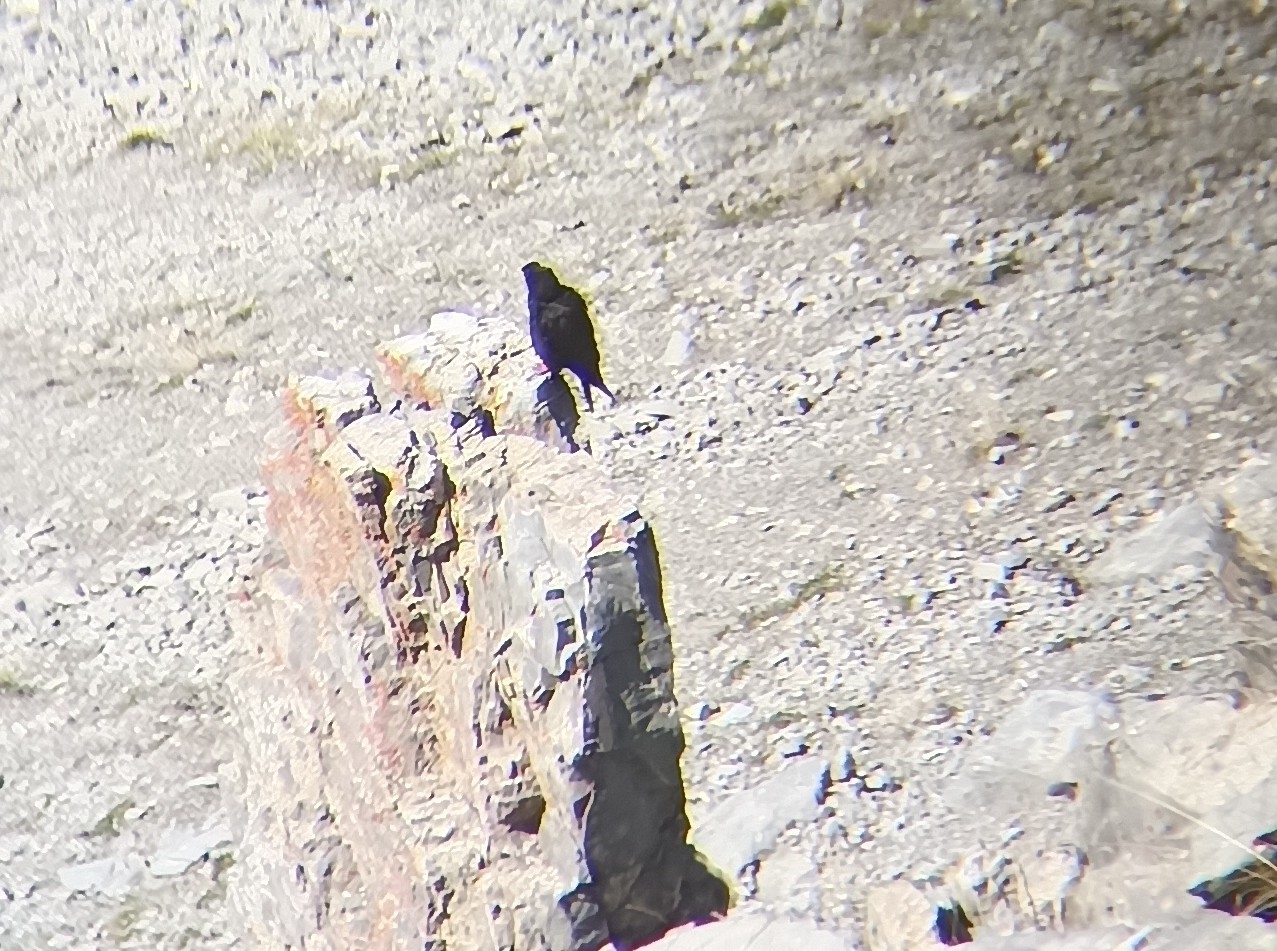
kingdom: Animalia
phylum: Chordata
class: Aves
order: Passeriformes
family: Corvidae
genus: Pyrrhocorax
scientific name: Pyrrhocorax graculus
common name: Alpine chough
